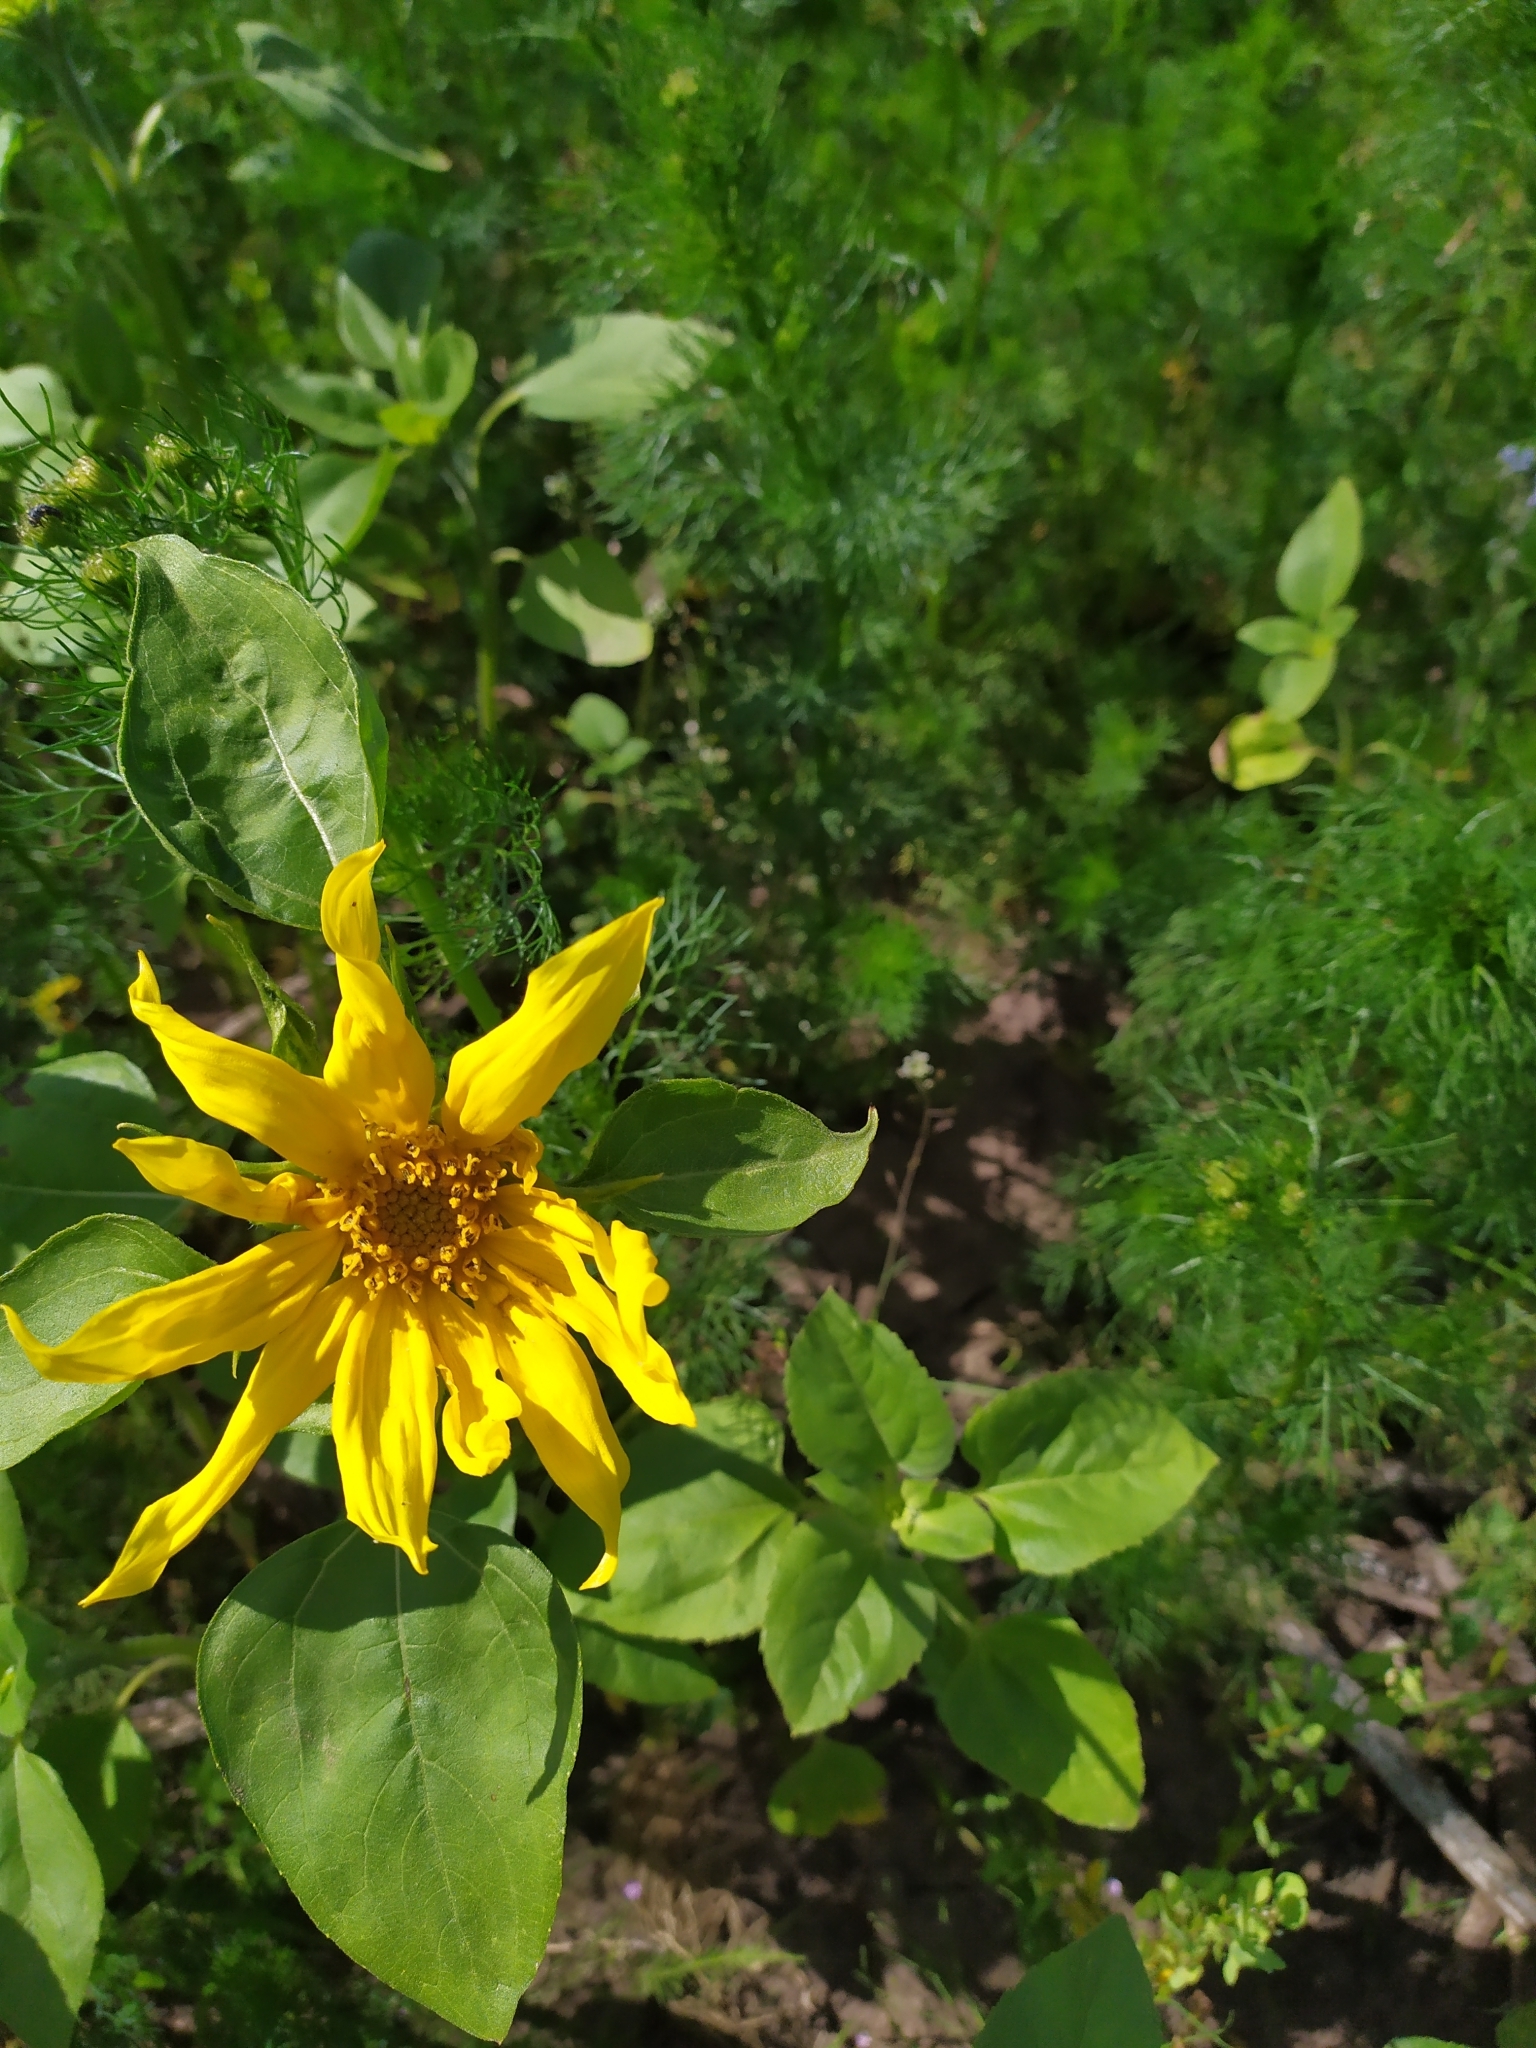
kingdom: Plantae
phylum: Tracheophyta
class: Magnoliopsida
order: Asterales
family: Asteraceae
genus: Helianthus
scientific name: Helianthus annuus
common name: Sunflower
